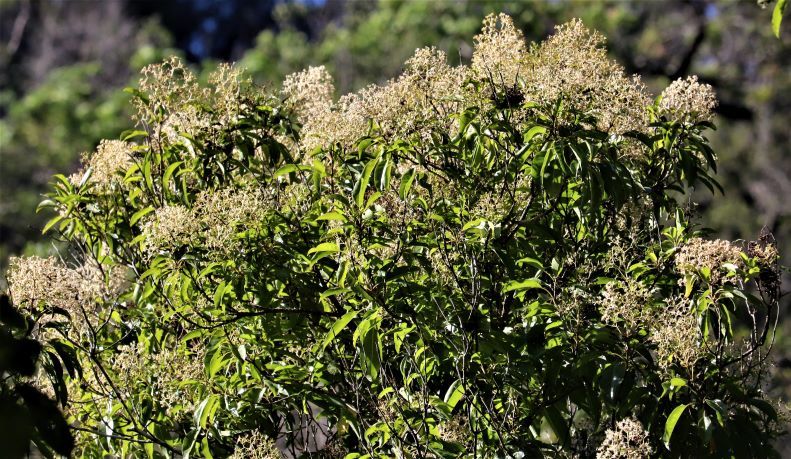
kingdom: Plantae
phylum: Tracheophyta
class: Magnoliopsida
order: Lamiales
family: Stilbaceae
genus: Nuxia
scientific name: Nuxia floribunda
